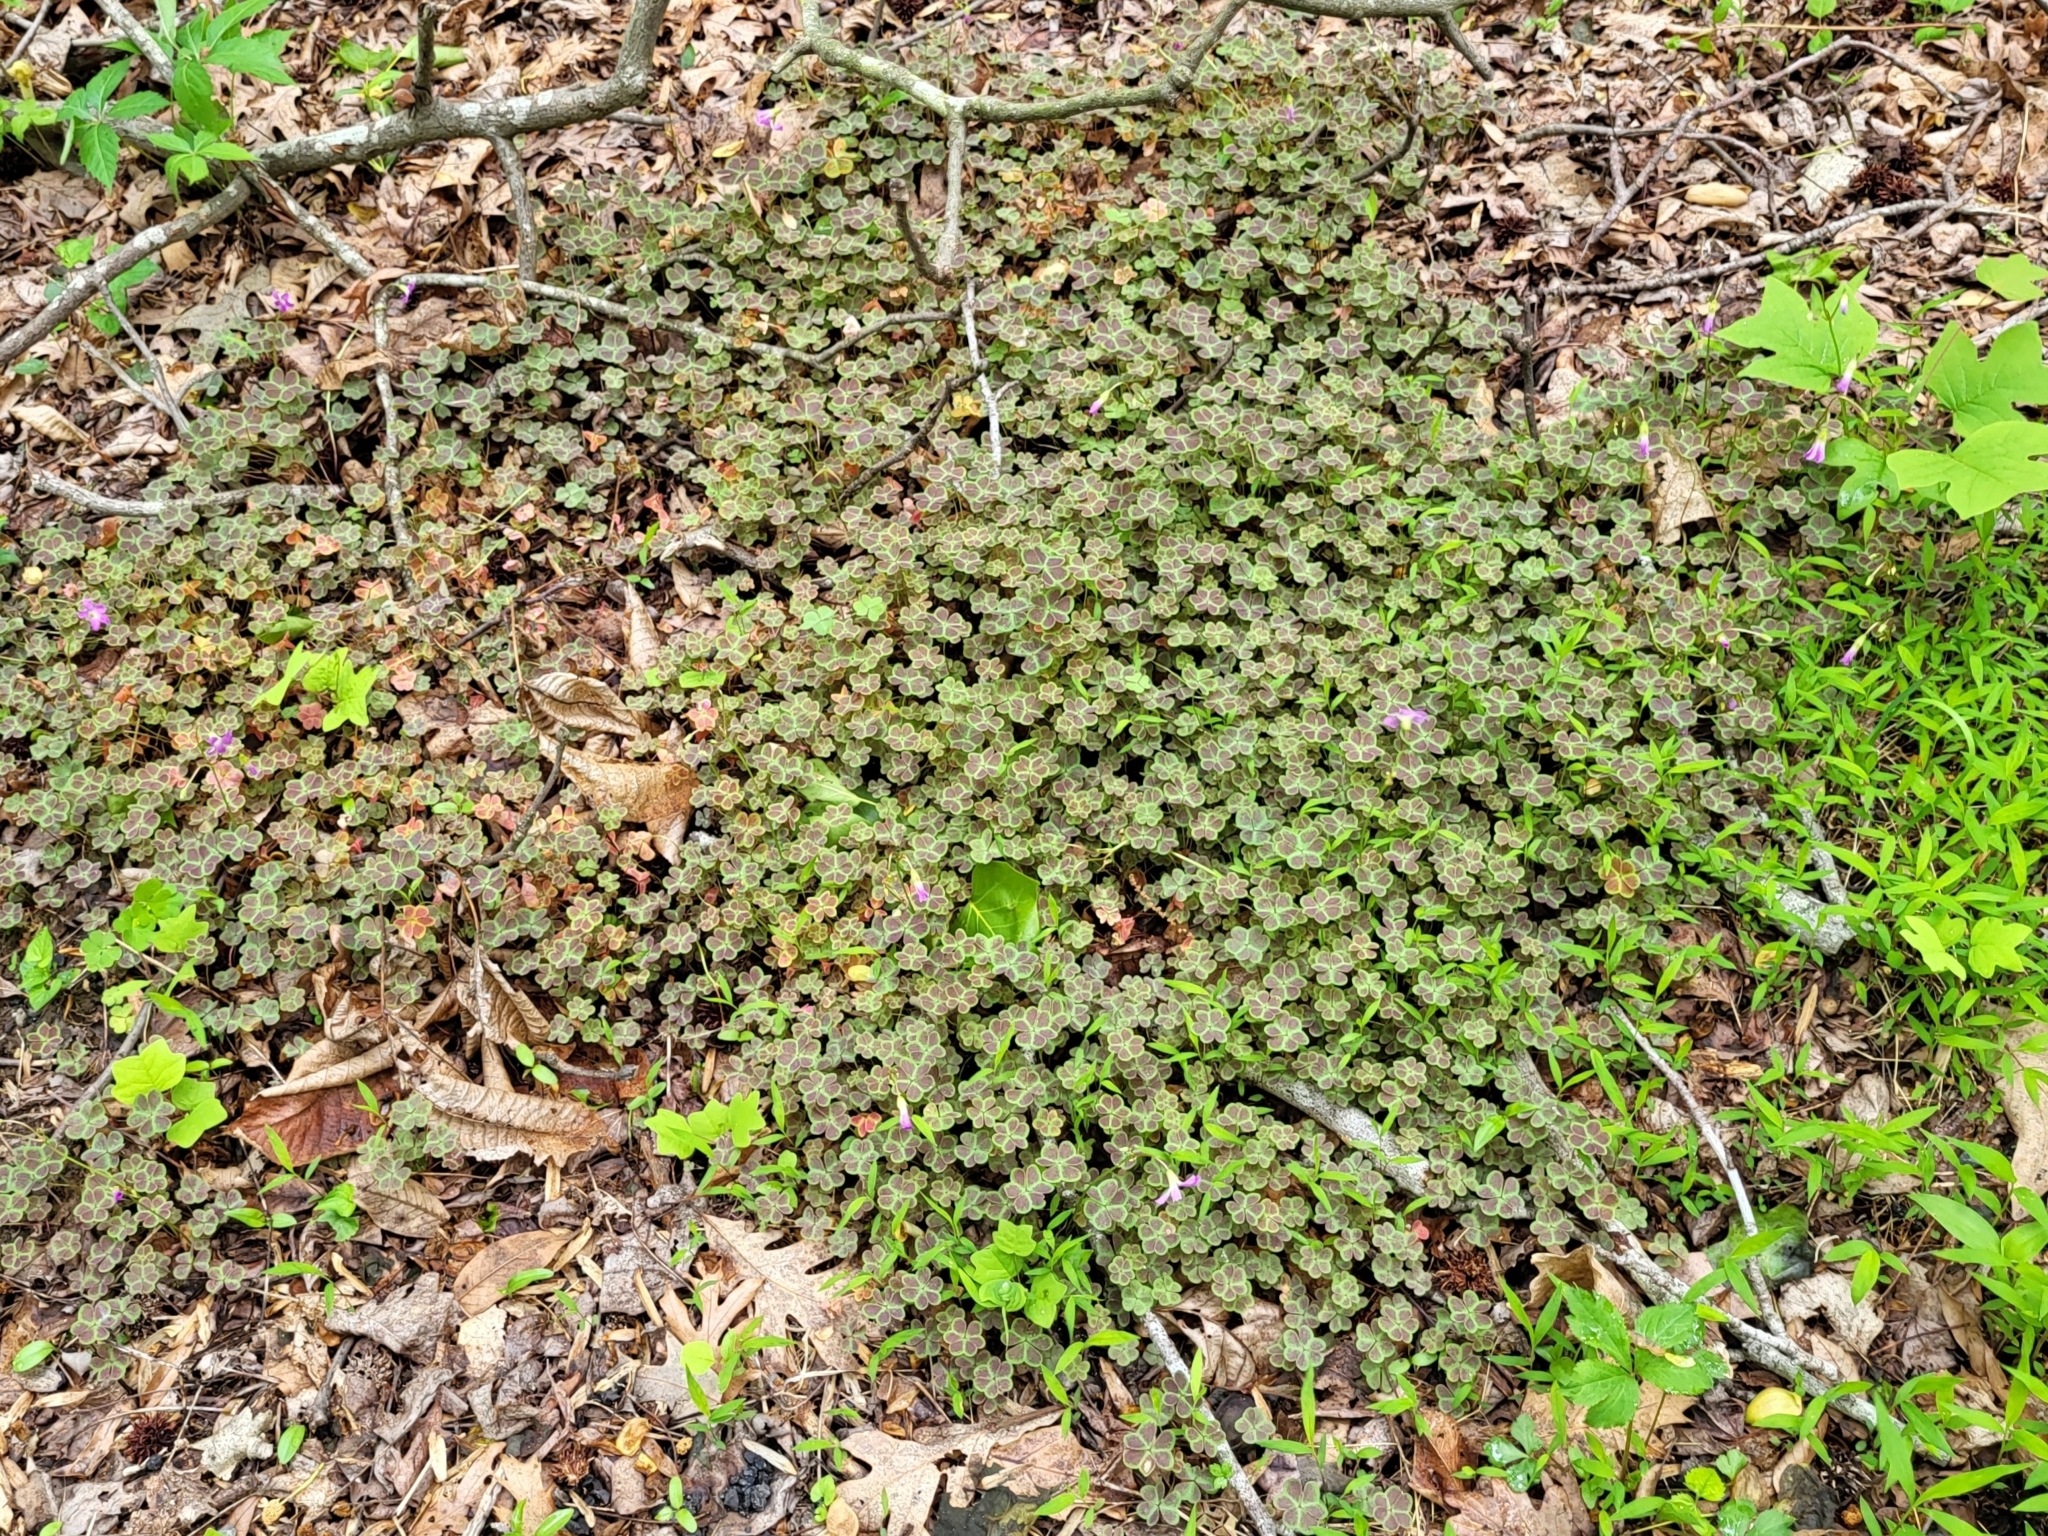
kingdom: Plantae
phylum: Tracheophyta
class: Magnoliopsida
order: Oxalidales
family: Oxalidaceae
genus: Oxalis
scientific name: Oxalis violacea
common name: Violet wood-sorrel
